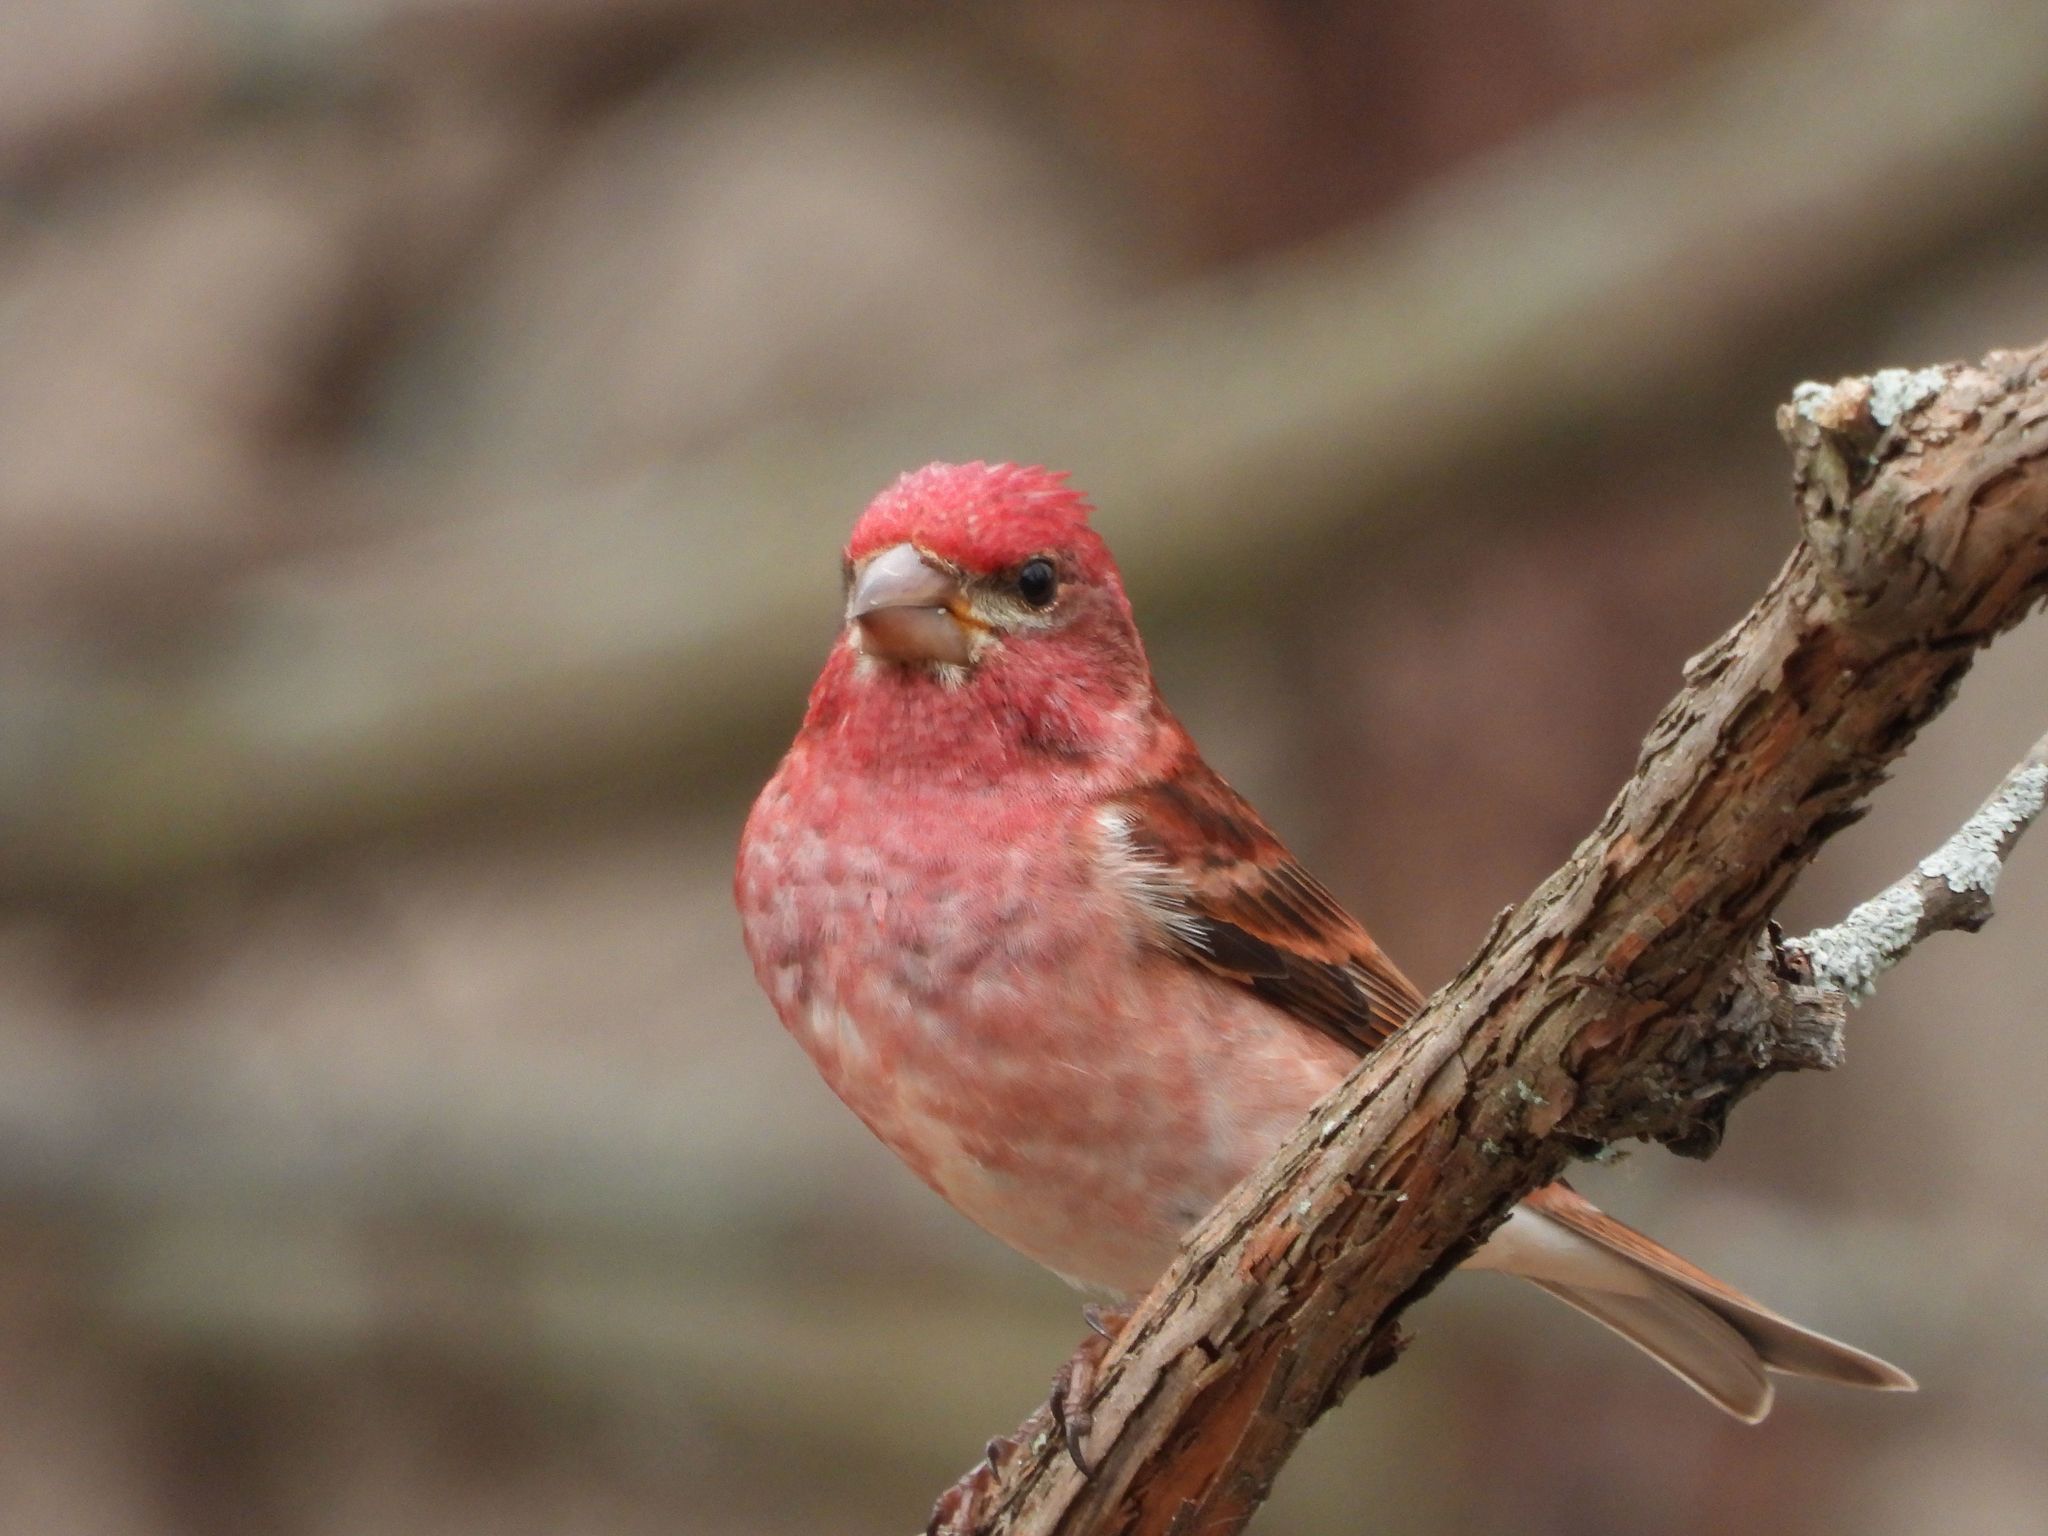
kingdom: Animalia
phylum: Chordata
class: Aves
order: Passeriformes
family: Fringillidae
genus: Haemorhous
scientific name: Haemorhous purpureus
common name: Purple finch
